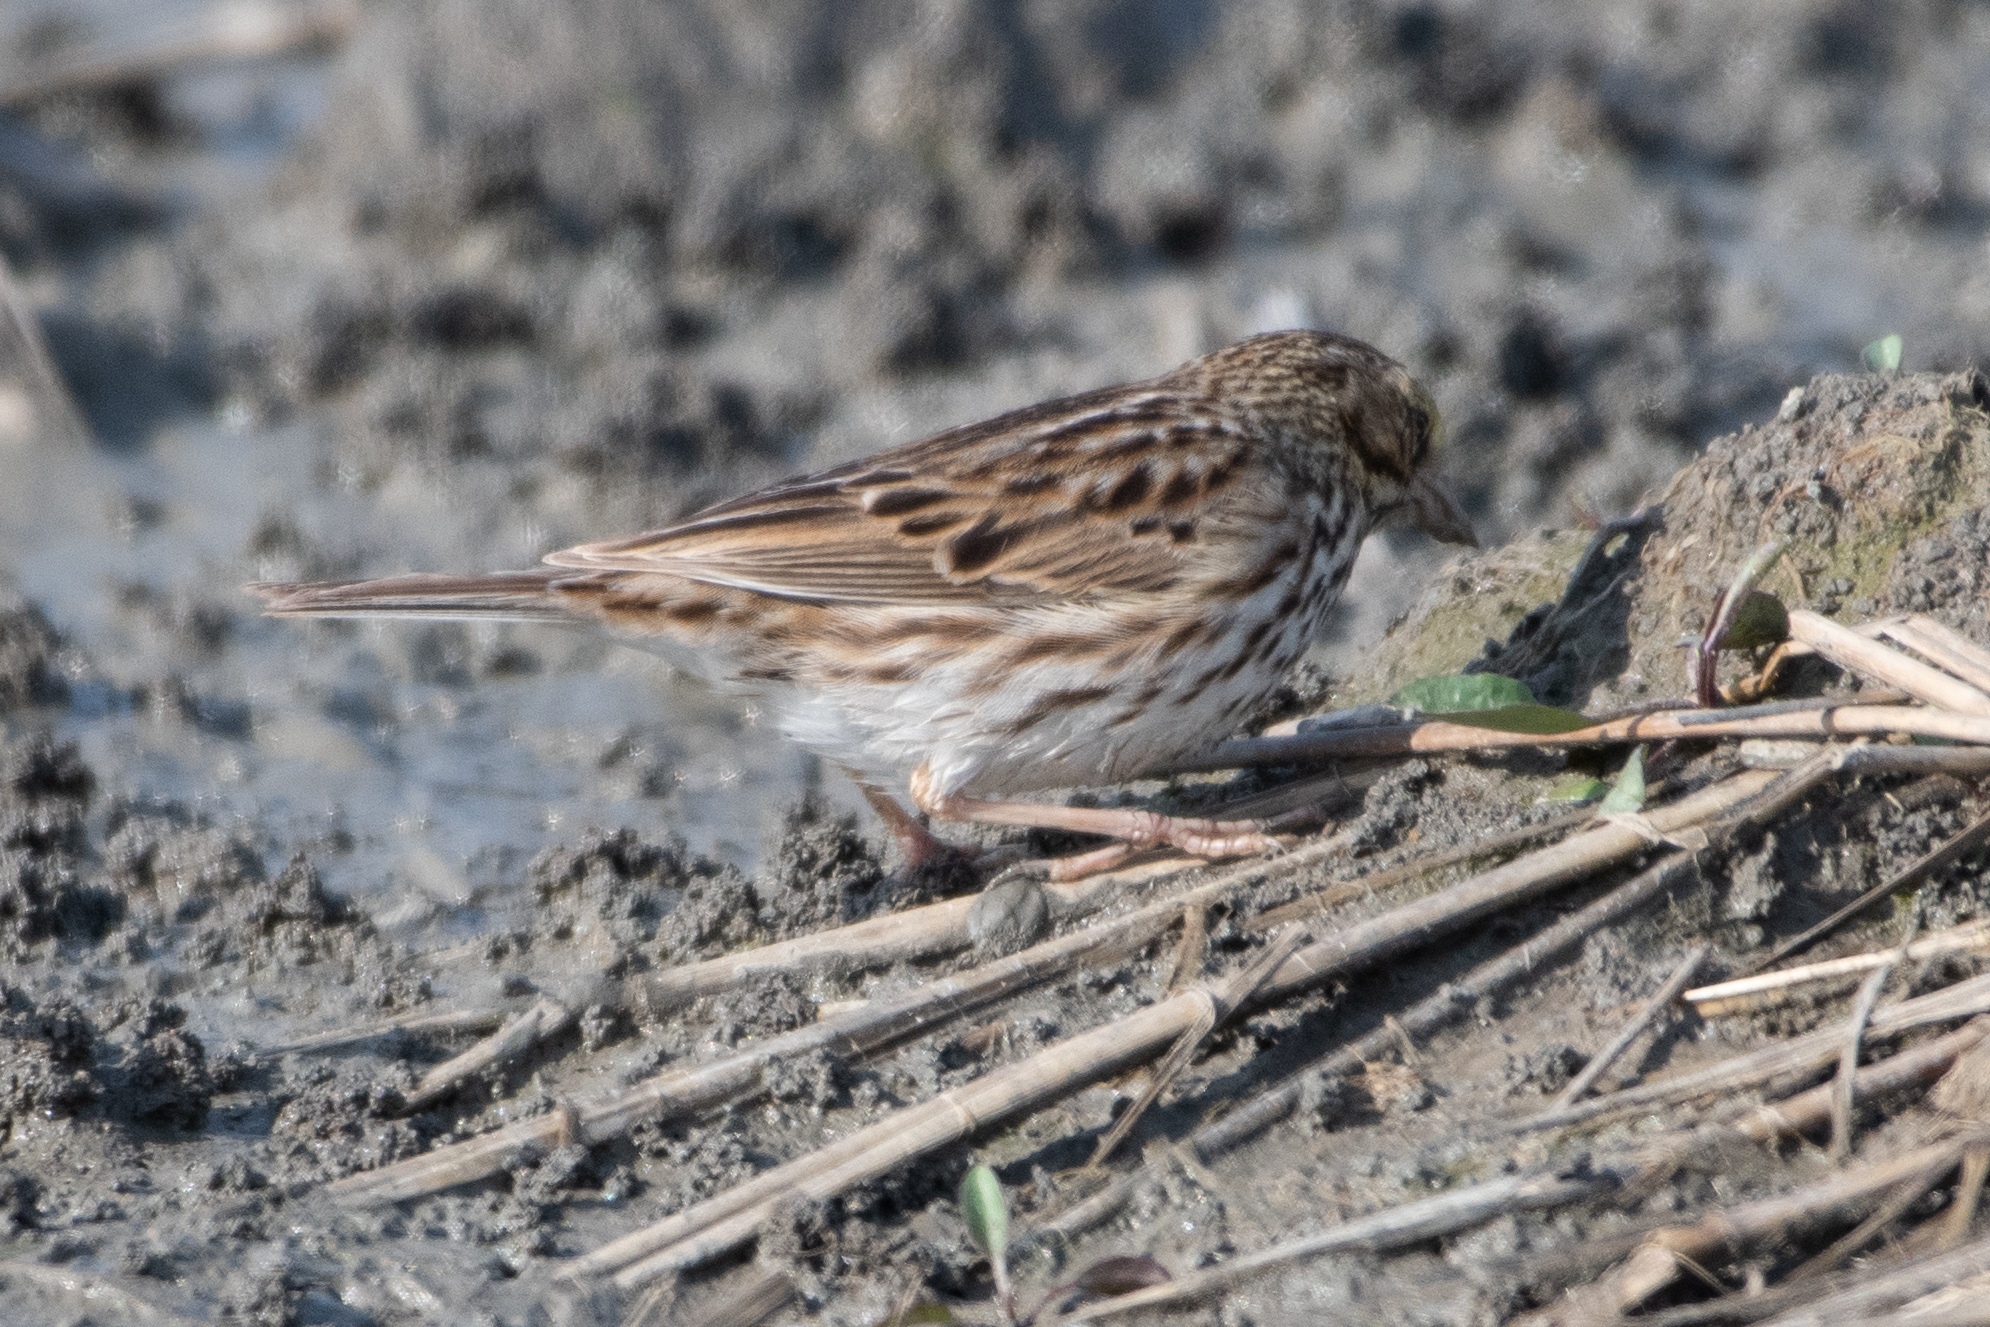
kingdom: Animalia
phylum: Chordata
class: Aves
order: Passeriformes
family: Passerellidae
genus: Passerculus
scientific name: Passerculus sandwichensis
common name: Savannah sparrow
